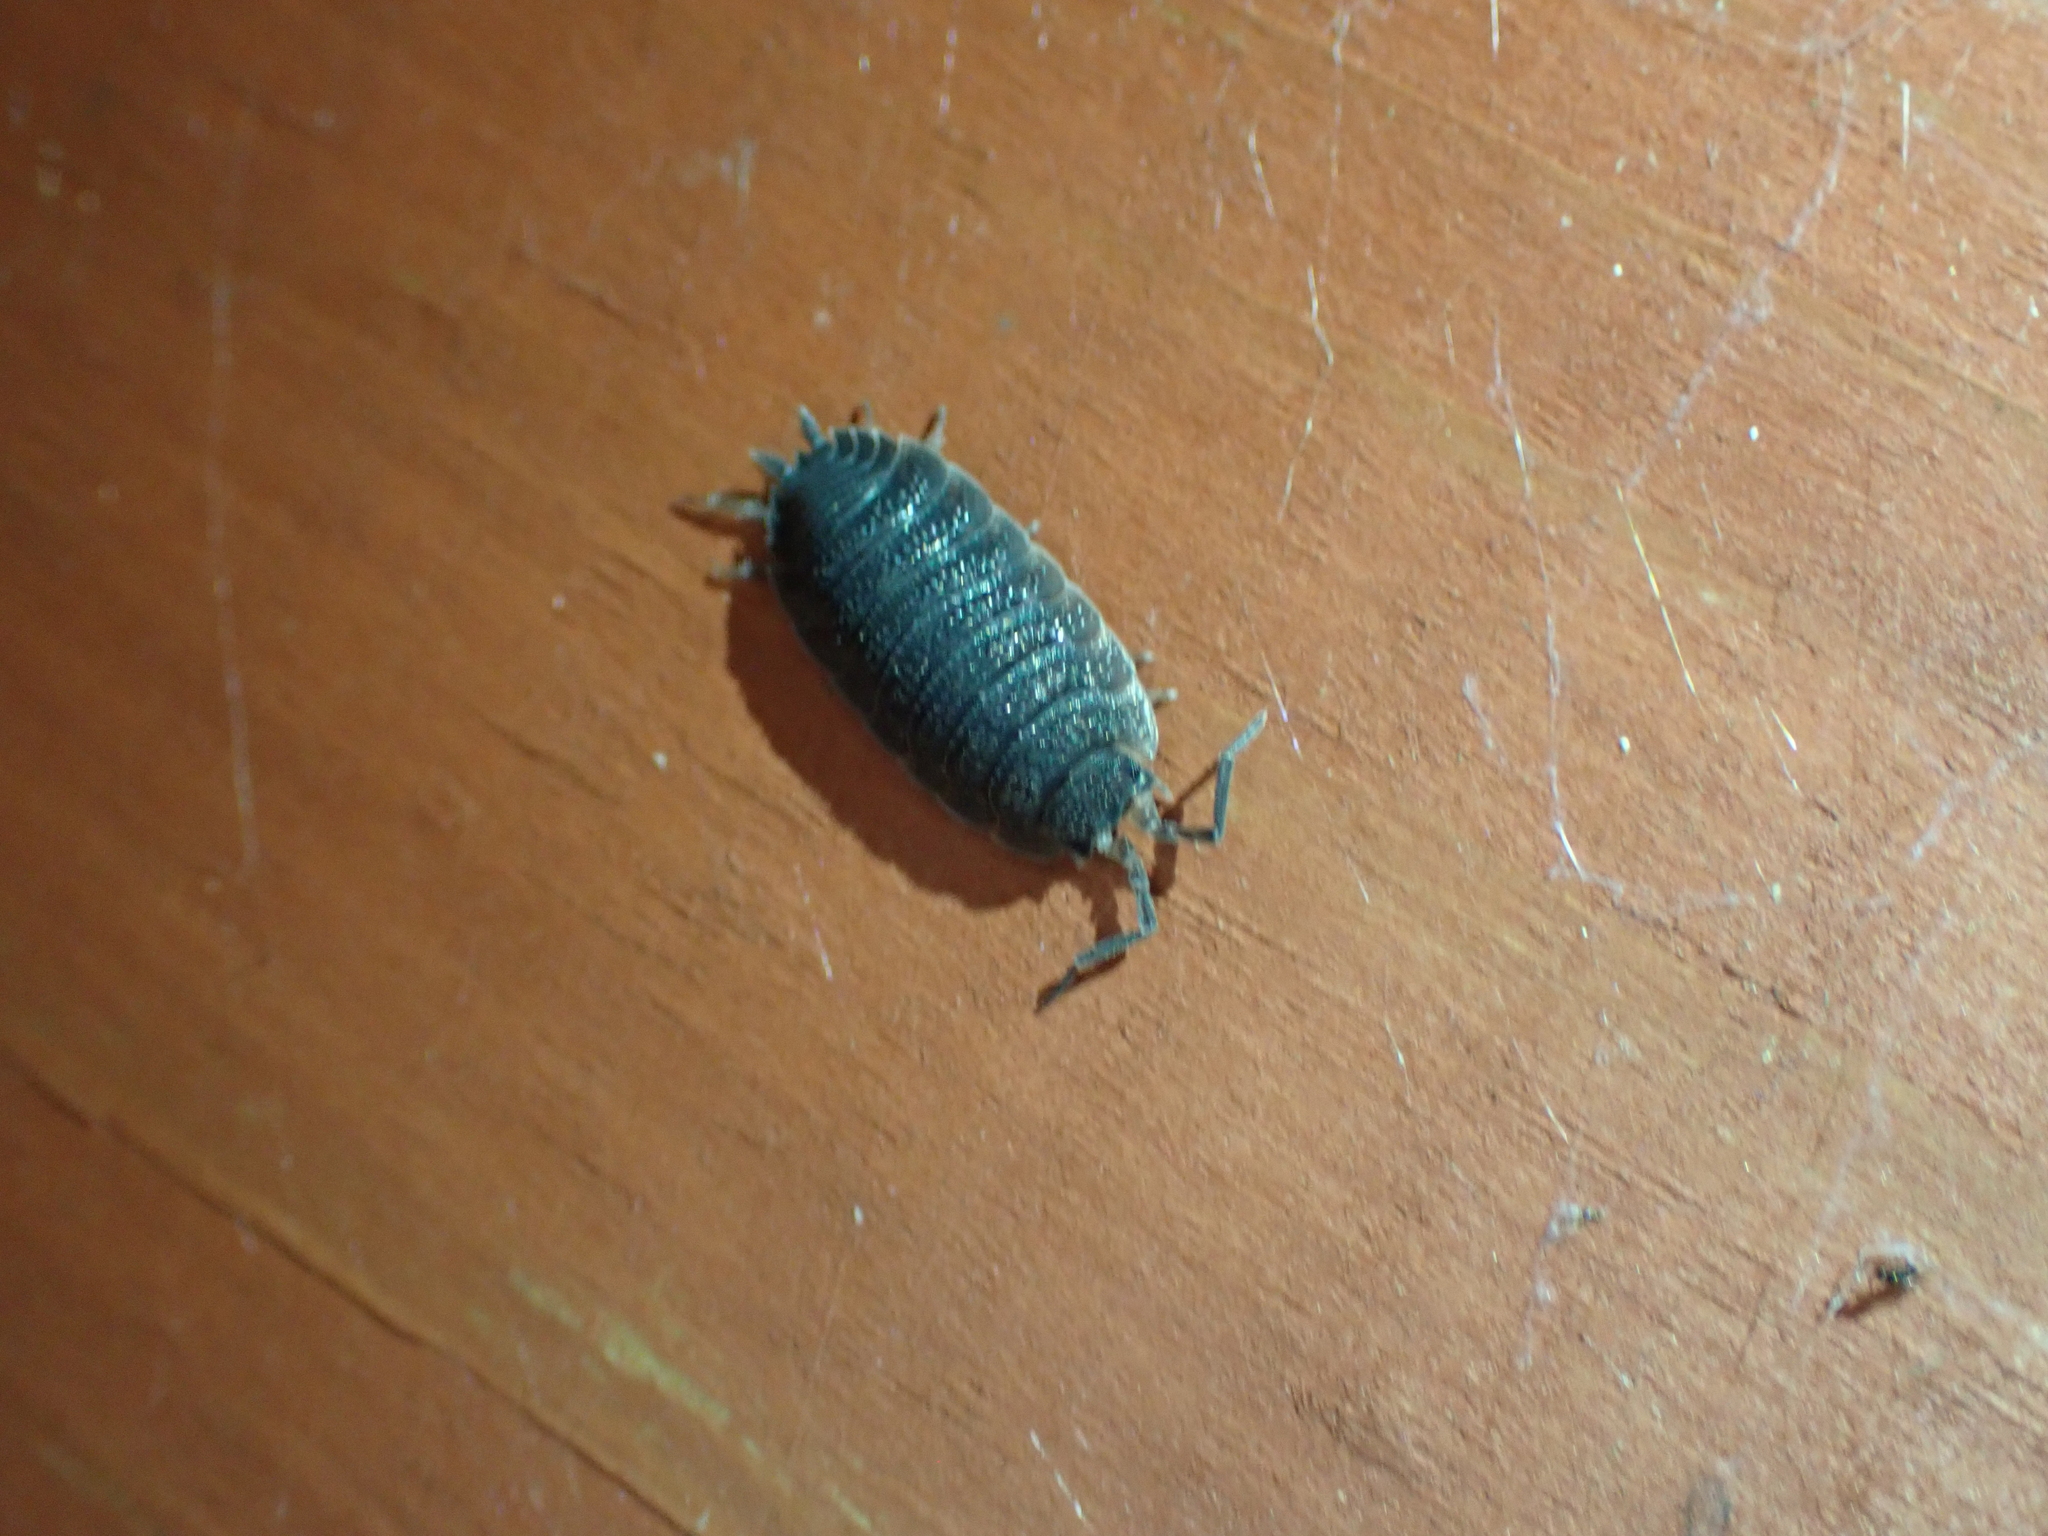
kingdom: Animalia
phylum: Arthropoda
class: Malacostraca
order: Isopoda
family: Porcellionidae
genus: Porcellio
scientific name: Porcellio scaber
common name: Common rough woodlouse
